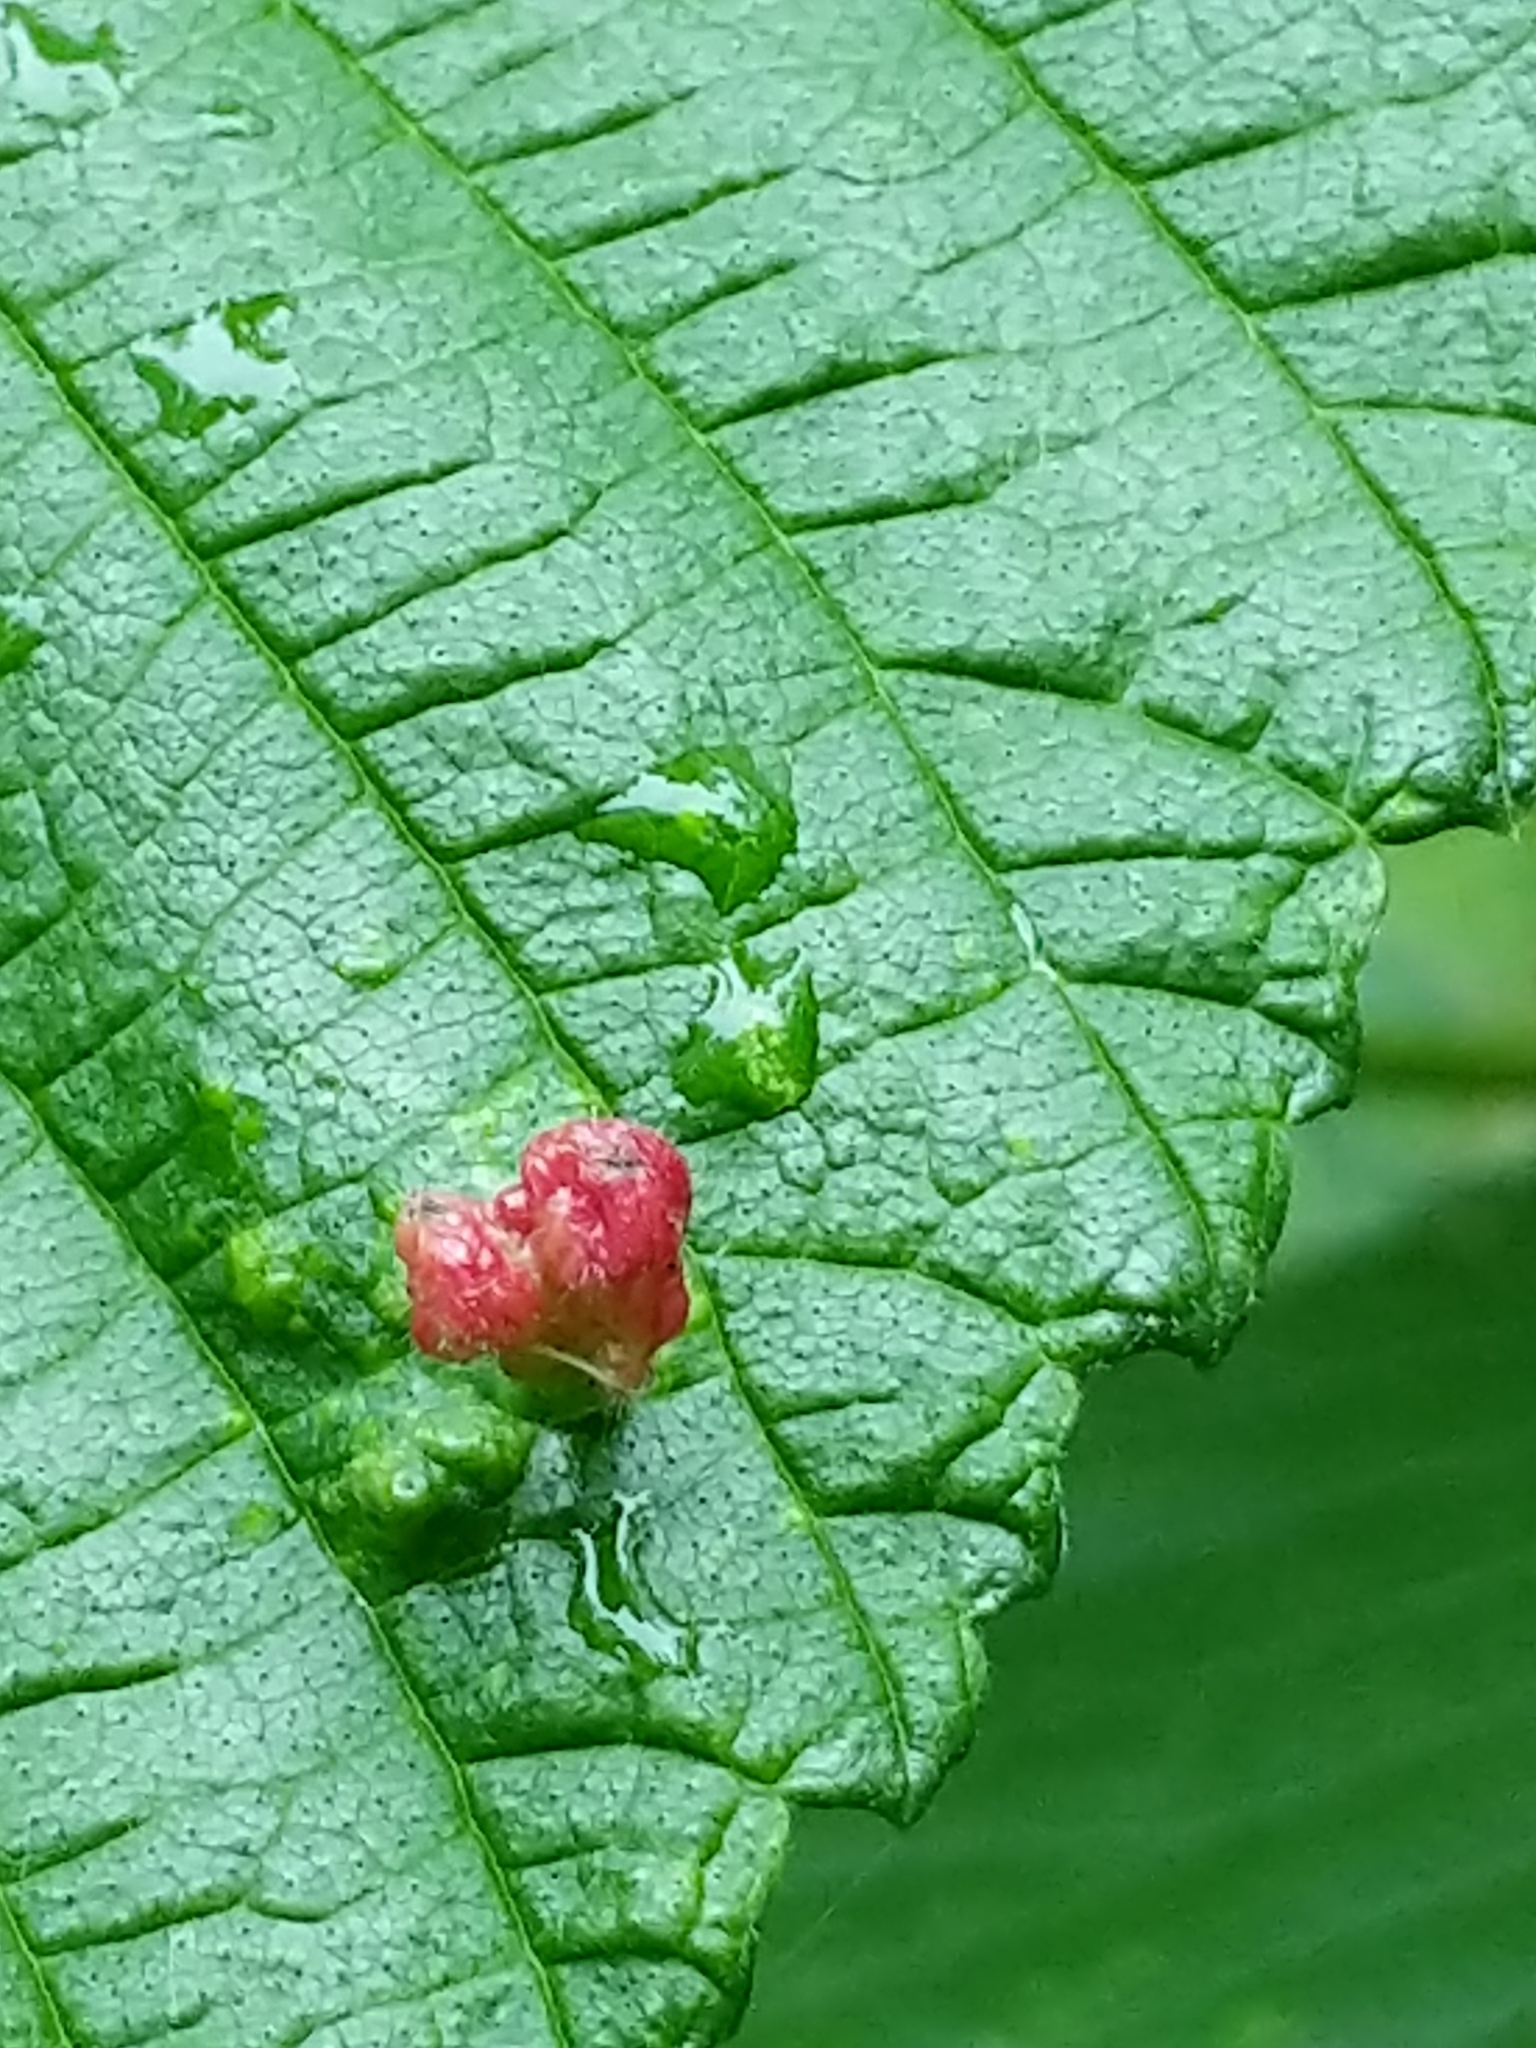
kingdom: Animalia
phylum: Arthropoda
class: Insecta
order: Hemiptera
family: Aphididae
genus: Tetraneura
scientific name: Tetraneura nigriabdominalis
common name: Aphid
